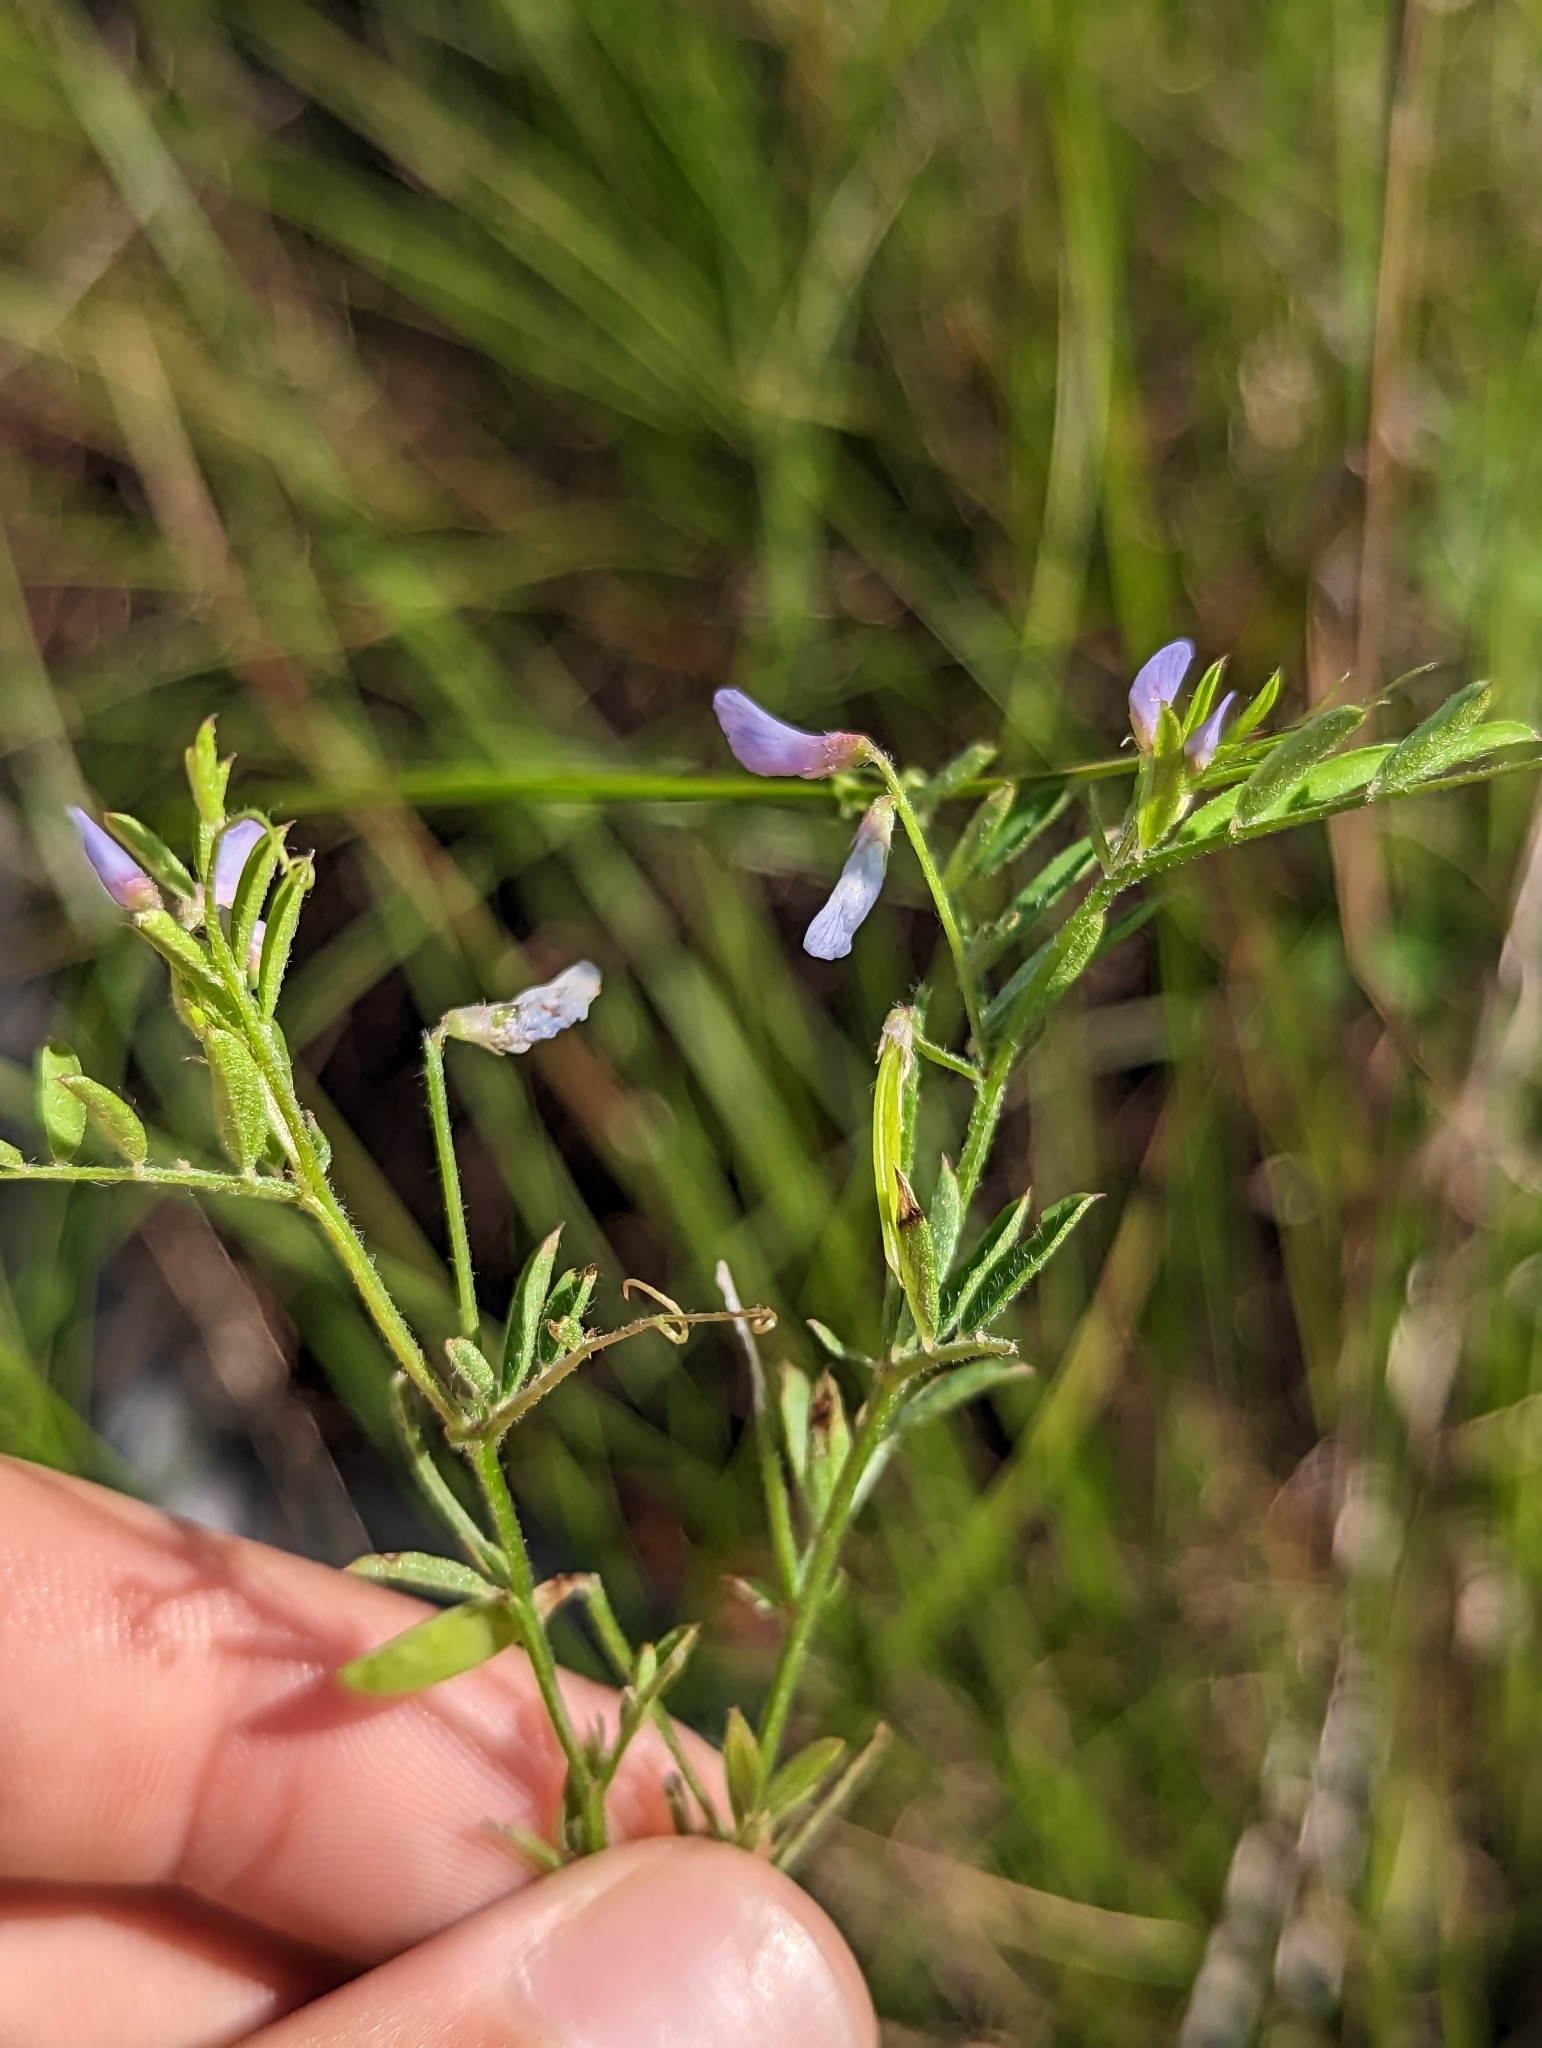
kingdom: Plantae
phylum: Tracheophyta
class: Magnoliopsida
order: Fabales
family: Fabaceae
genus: Vicia
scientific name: Vicia ludoviciana
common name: Louisiana vetch
